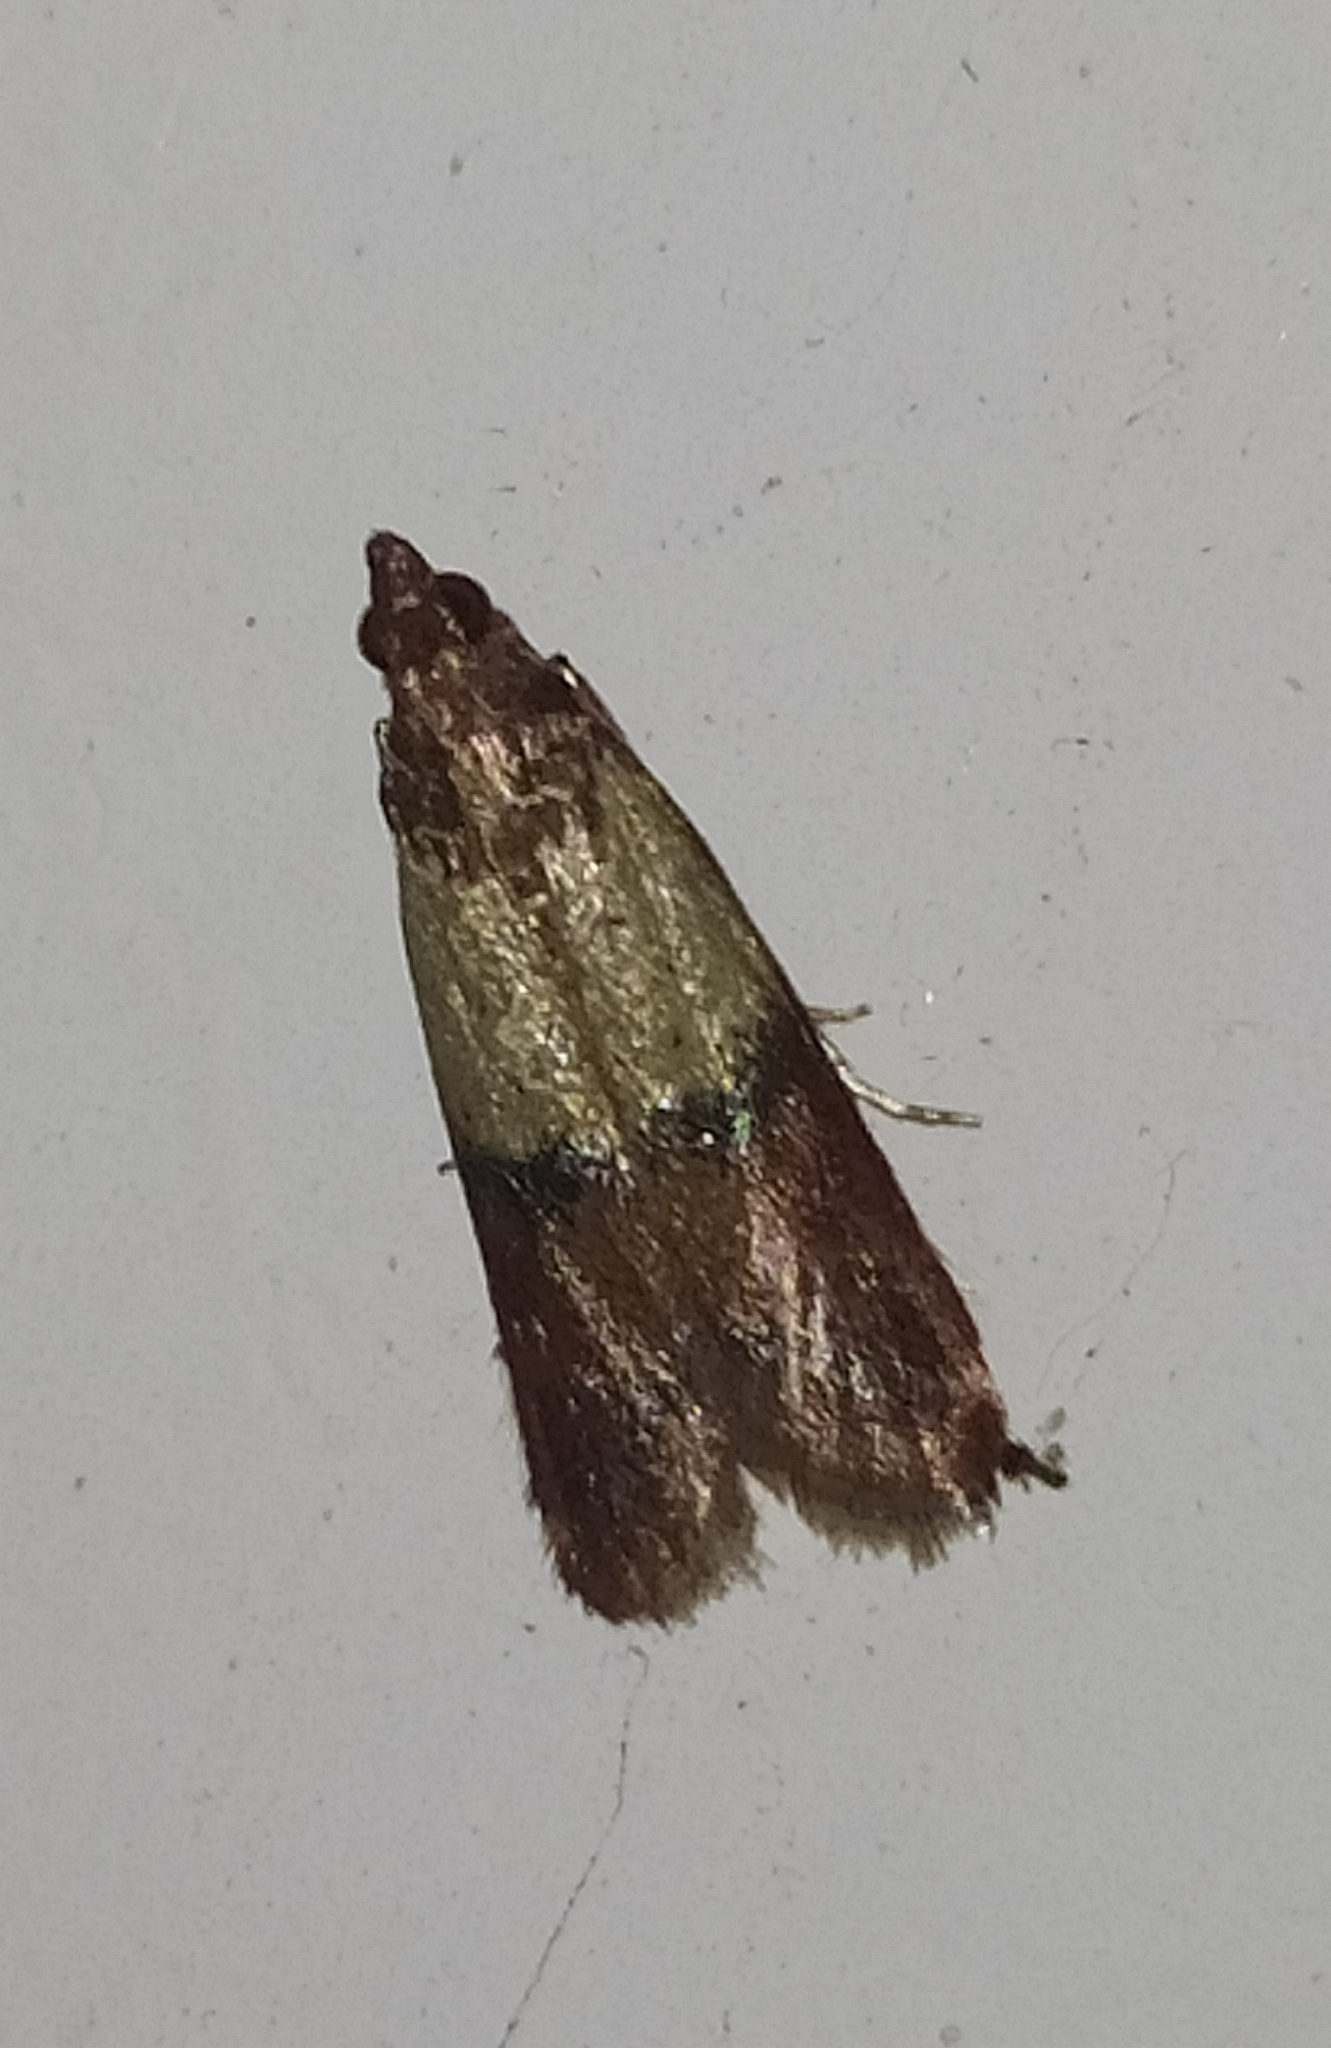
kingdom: Animalia
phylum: Arthropoda
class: Insecta
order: Lepidoptera
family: Pyralidae
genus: Plodia
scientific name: Plodia interpunctella
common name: Indian meal moth
